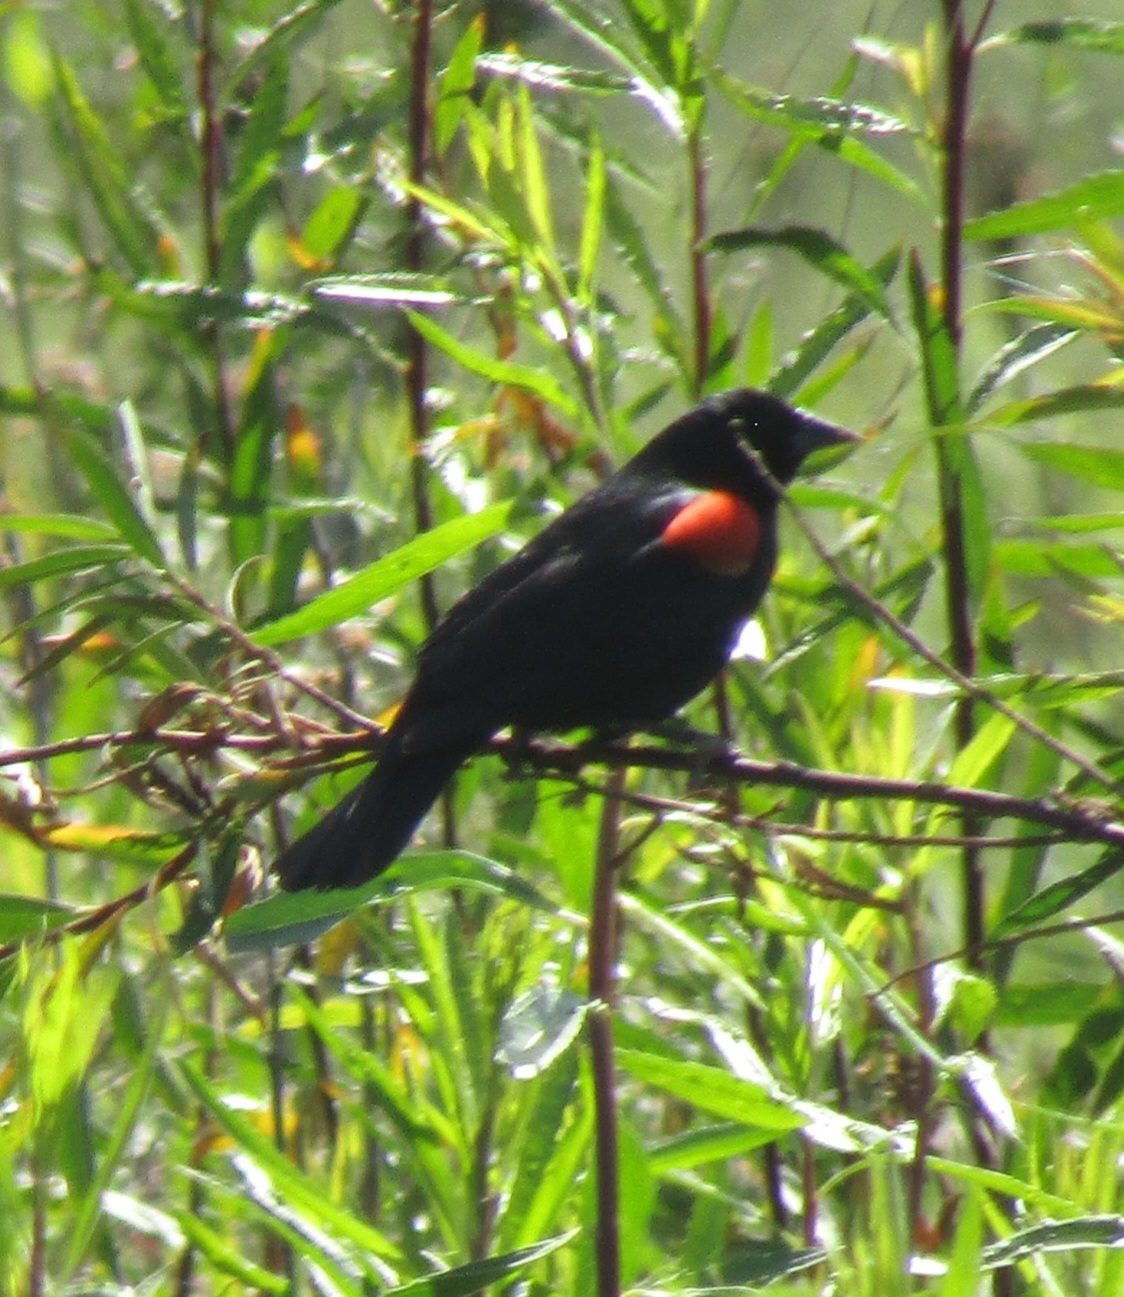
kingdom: Animalia
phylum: Chordata
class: Aves
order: Passeriformes
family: Icteridae
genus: Agelaius
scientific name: Agelaius phoeniceus
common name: Red-winged blackbird
